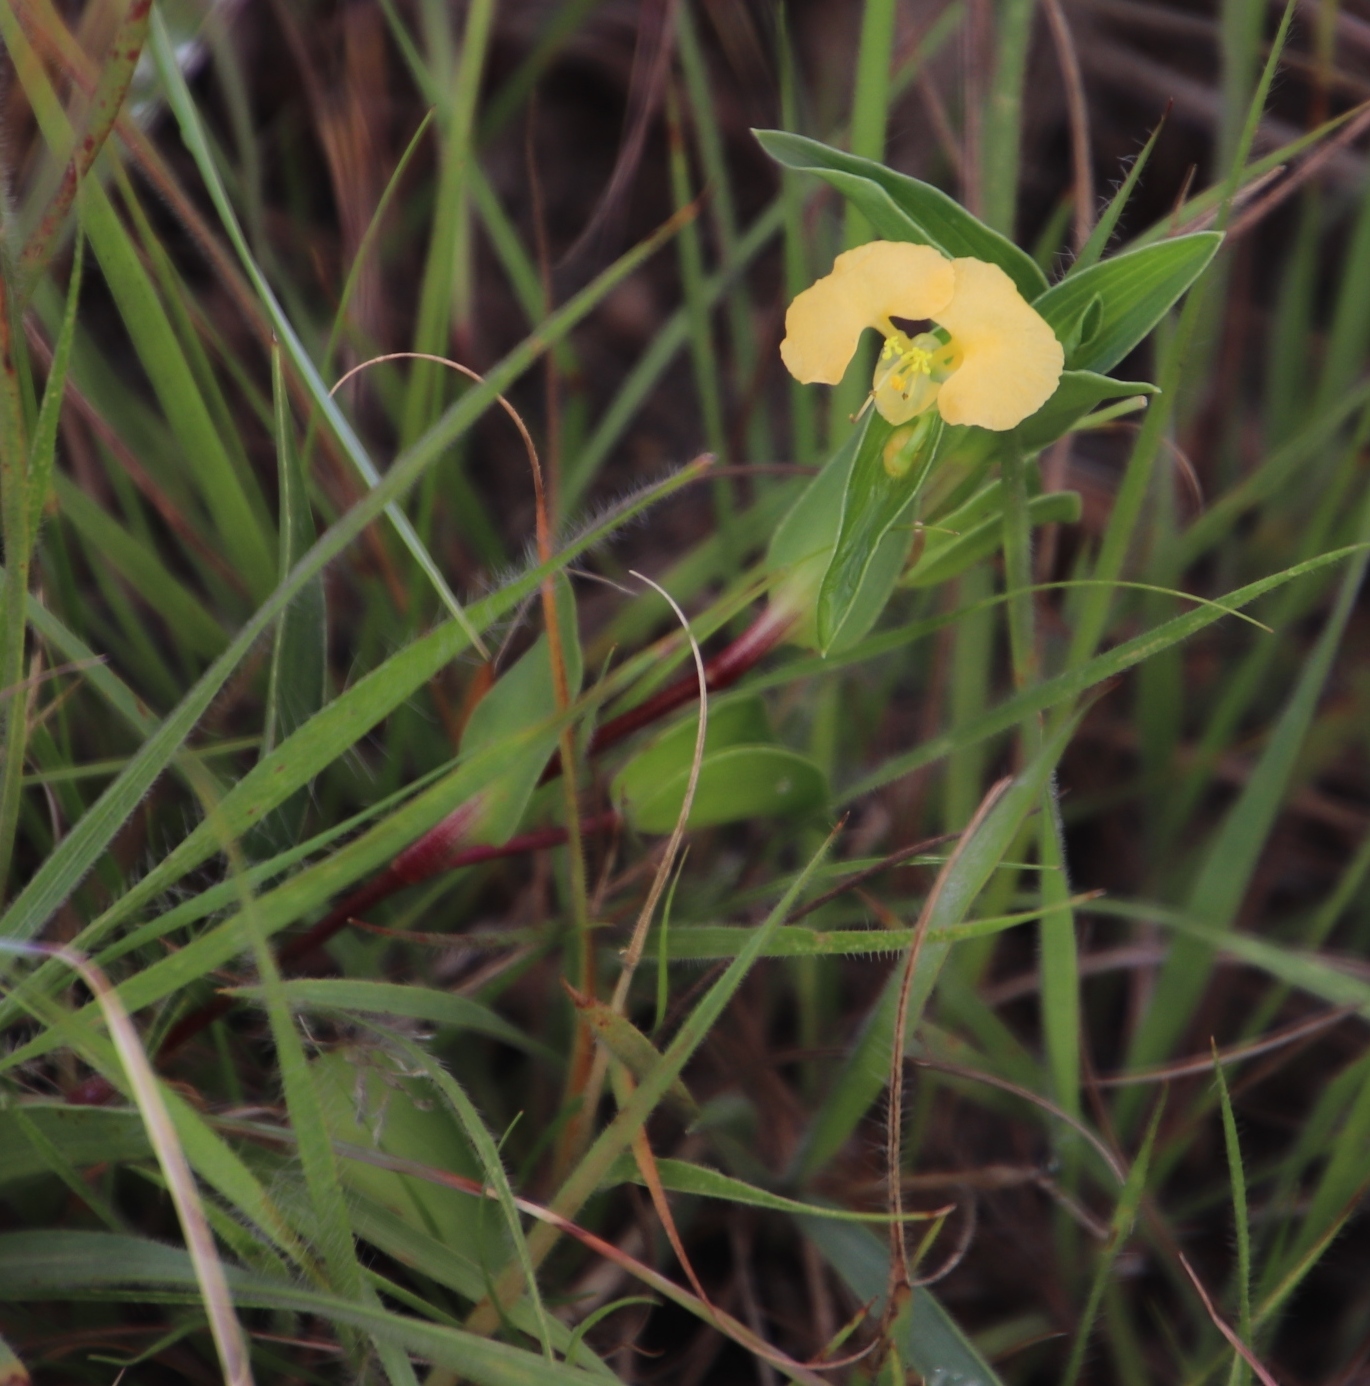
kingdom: Plantae
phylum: Tracheophyta
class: Liliopsida
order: Commelinales
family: Commelinaceae
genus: Commelina
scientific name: Commelina africana
